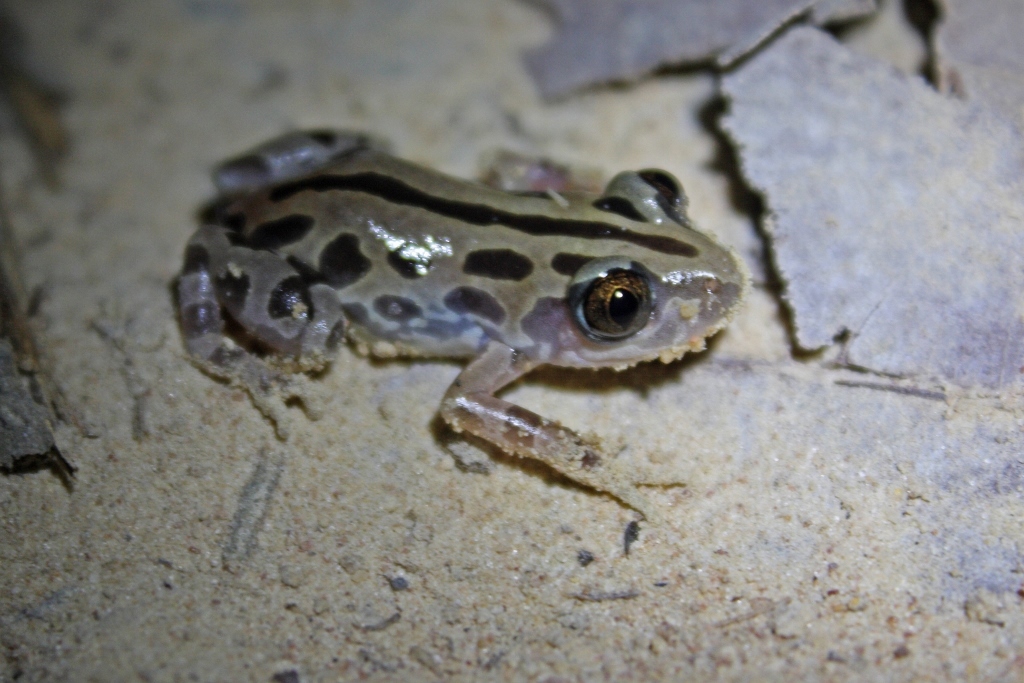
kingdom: Animalia
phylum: Chordata
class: Amphibia
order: Anura
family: Hyperoliidae
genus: Kassina
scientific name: Kassina senegalensis
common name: Senegal land frog
